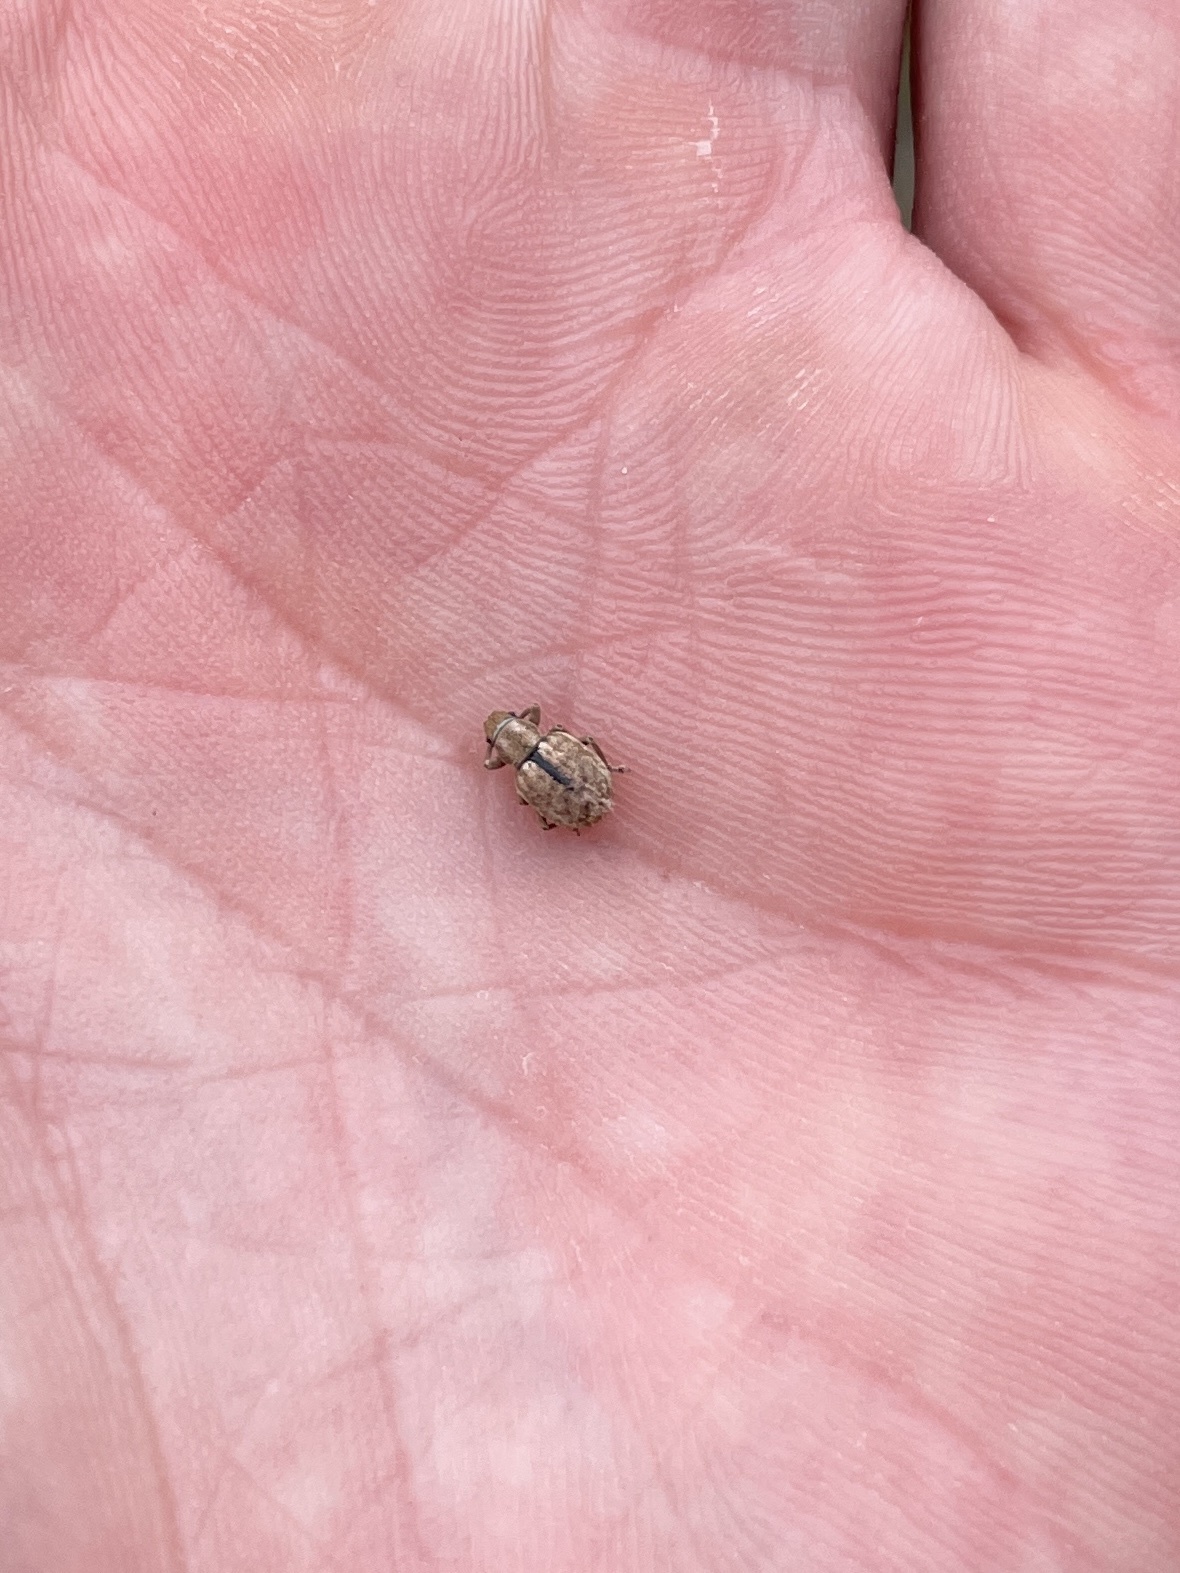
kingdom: Animalia
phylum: Arthropoda
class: Insecta
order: Coleoptera
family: Curculionidae
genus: Strophosoma
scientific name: Strophosoma melanogrammum
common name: Weevil
